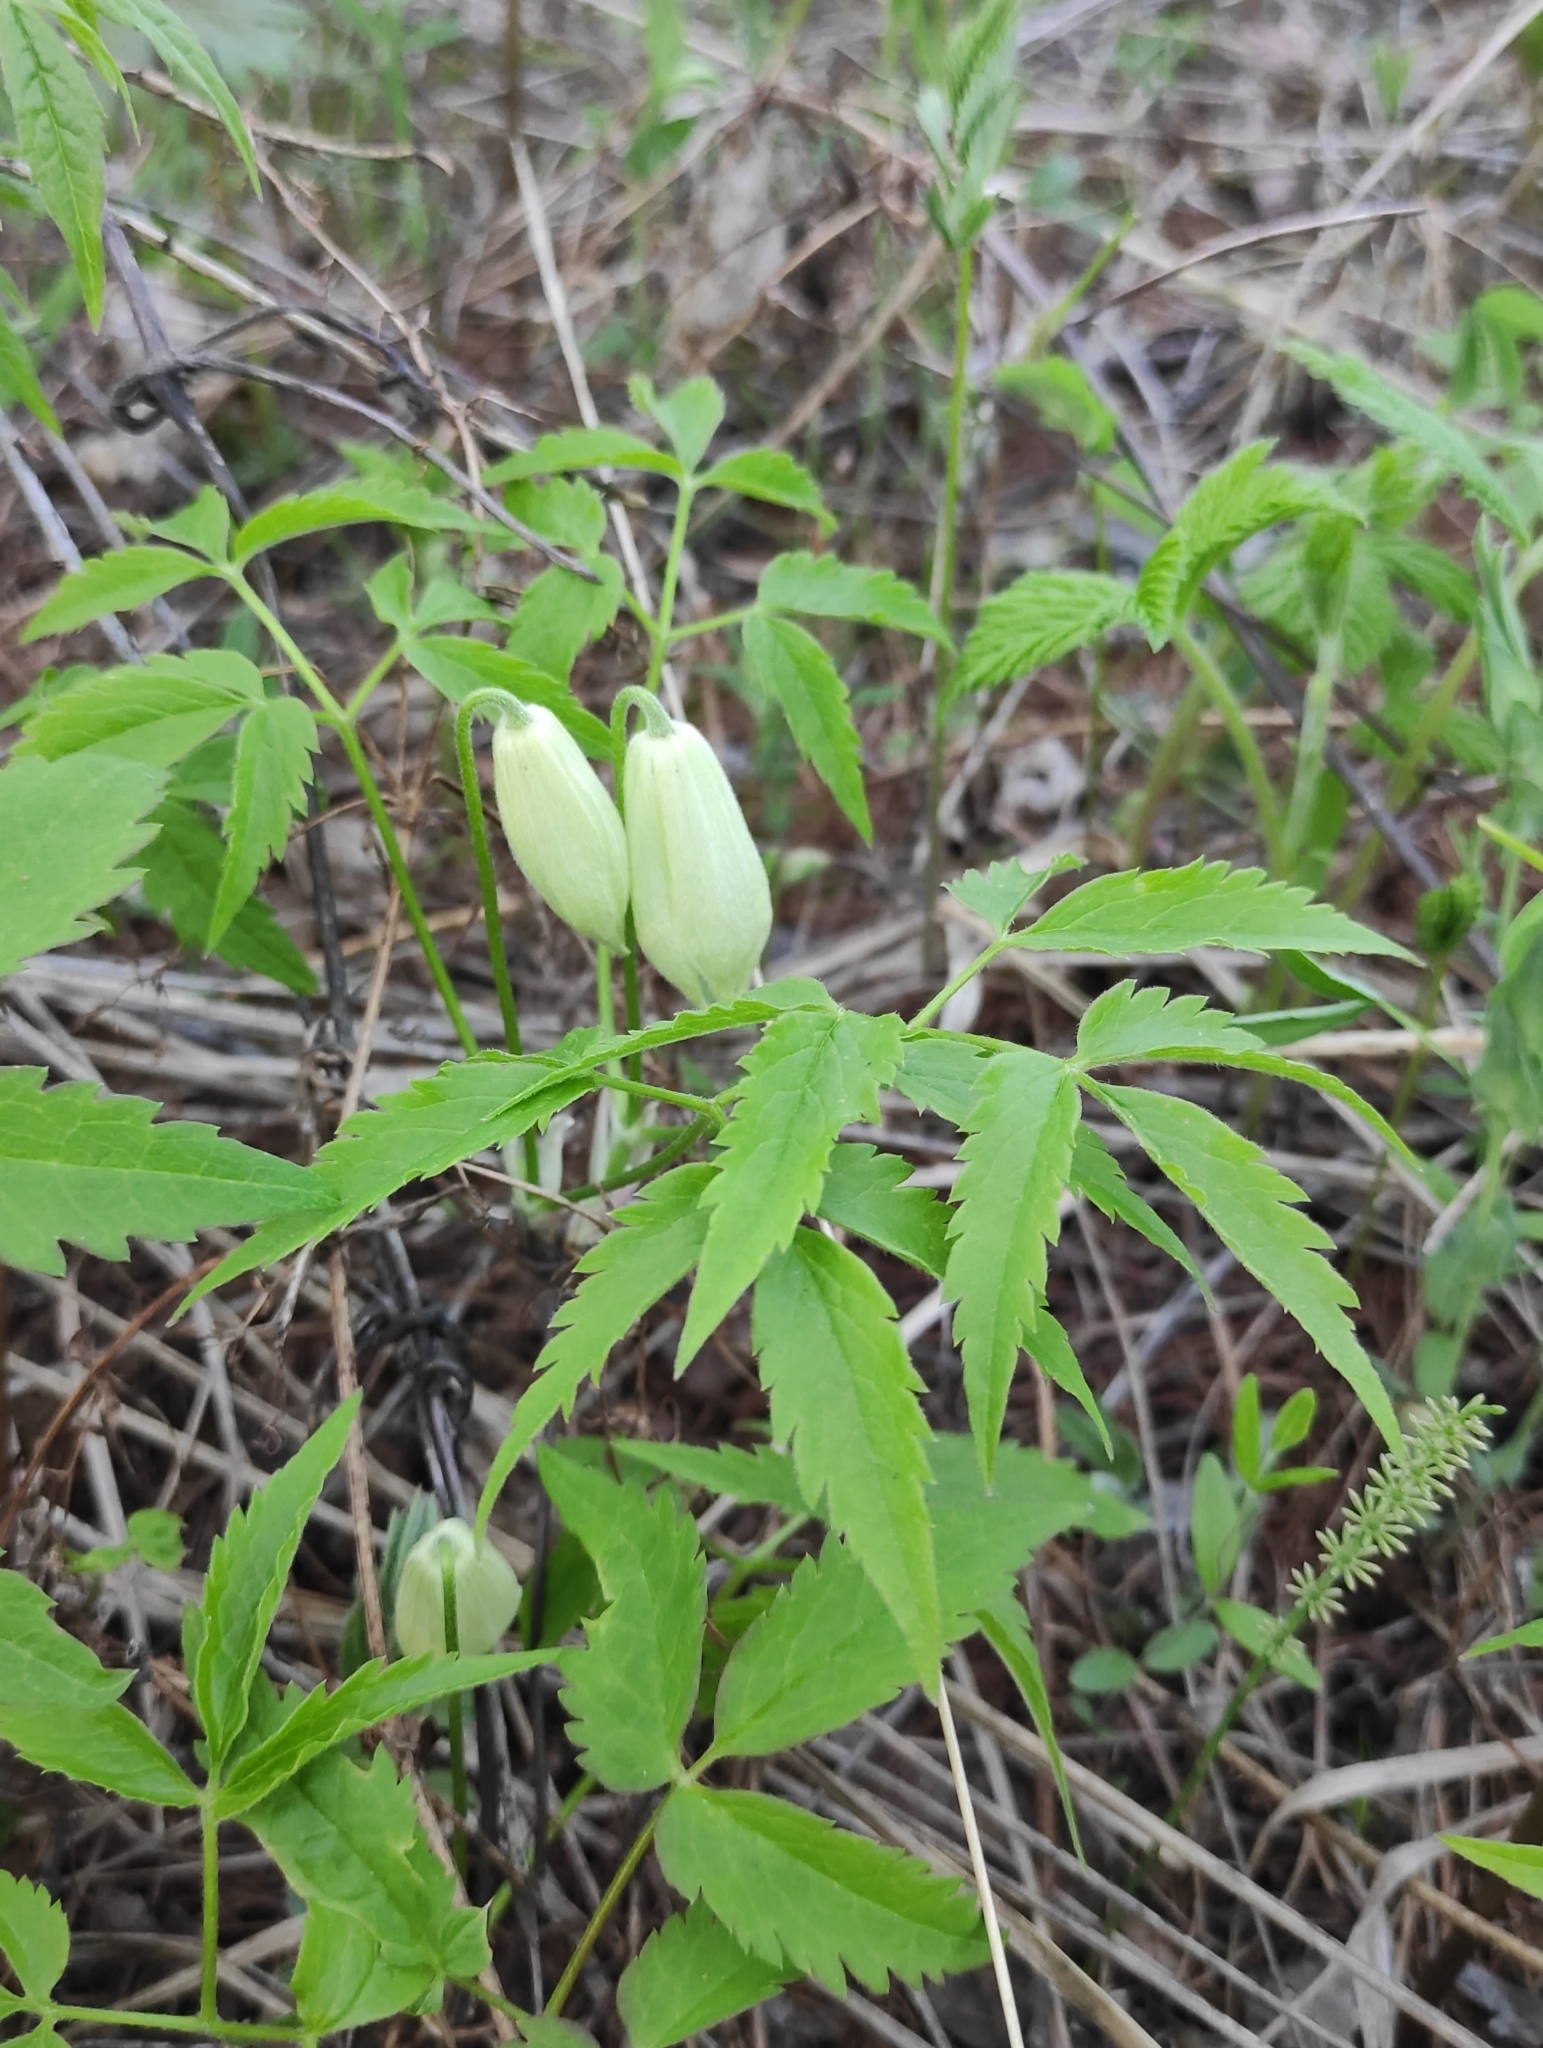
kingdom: Plantae
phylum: Tracheophyta
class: Magnoliopsida
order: Ranunculales
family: Ranunculaceae
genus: Clematis
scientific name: Clematis sibirica
